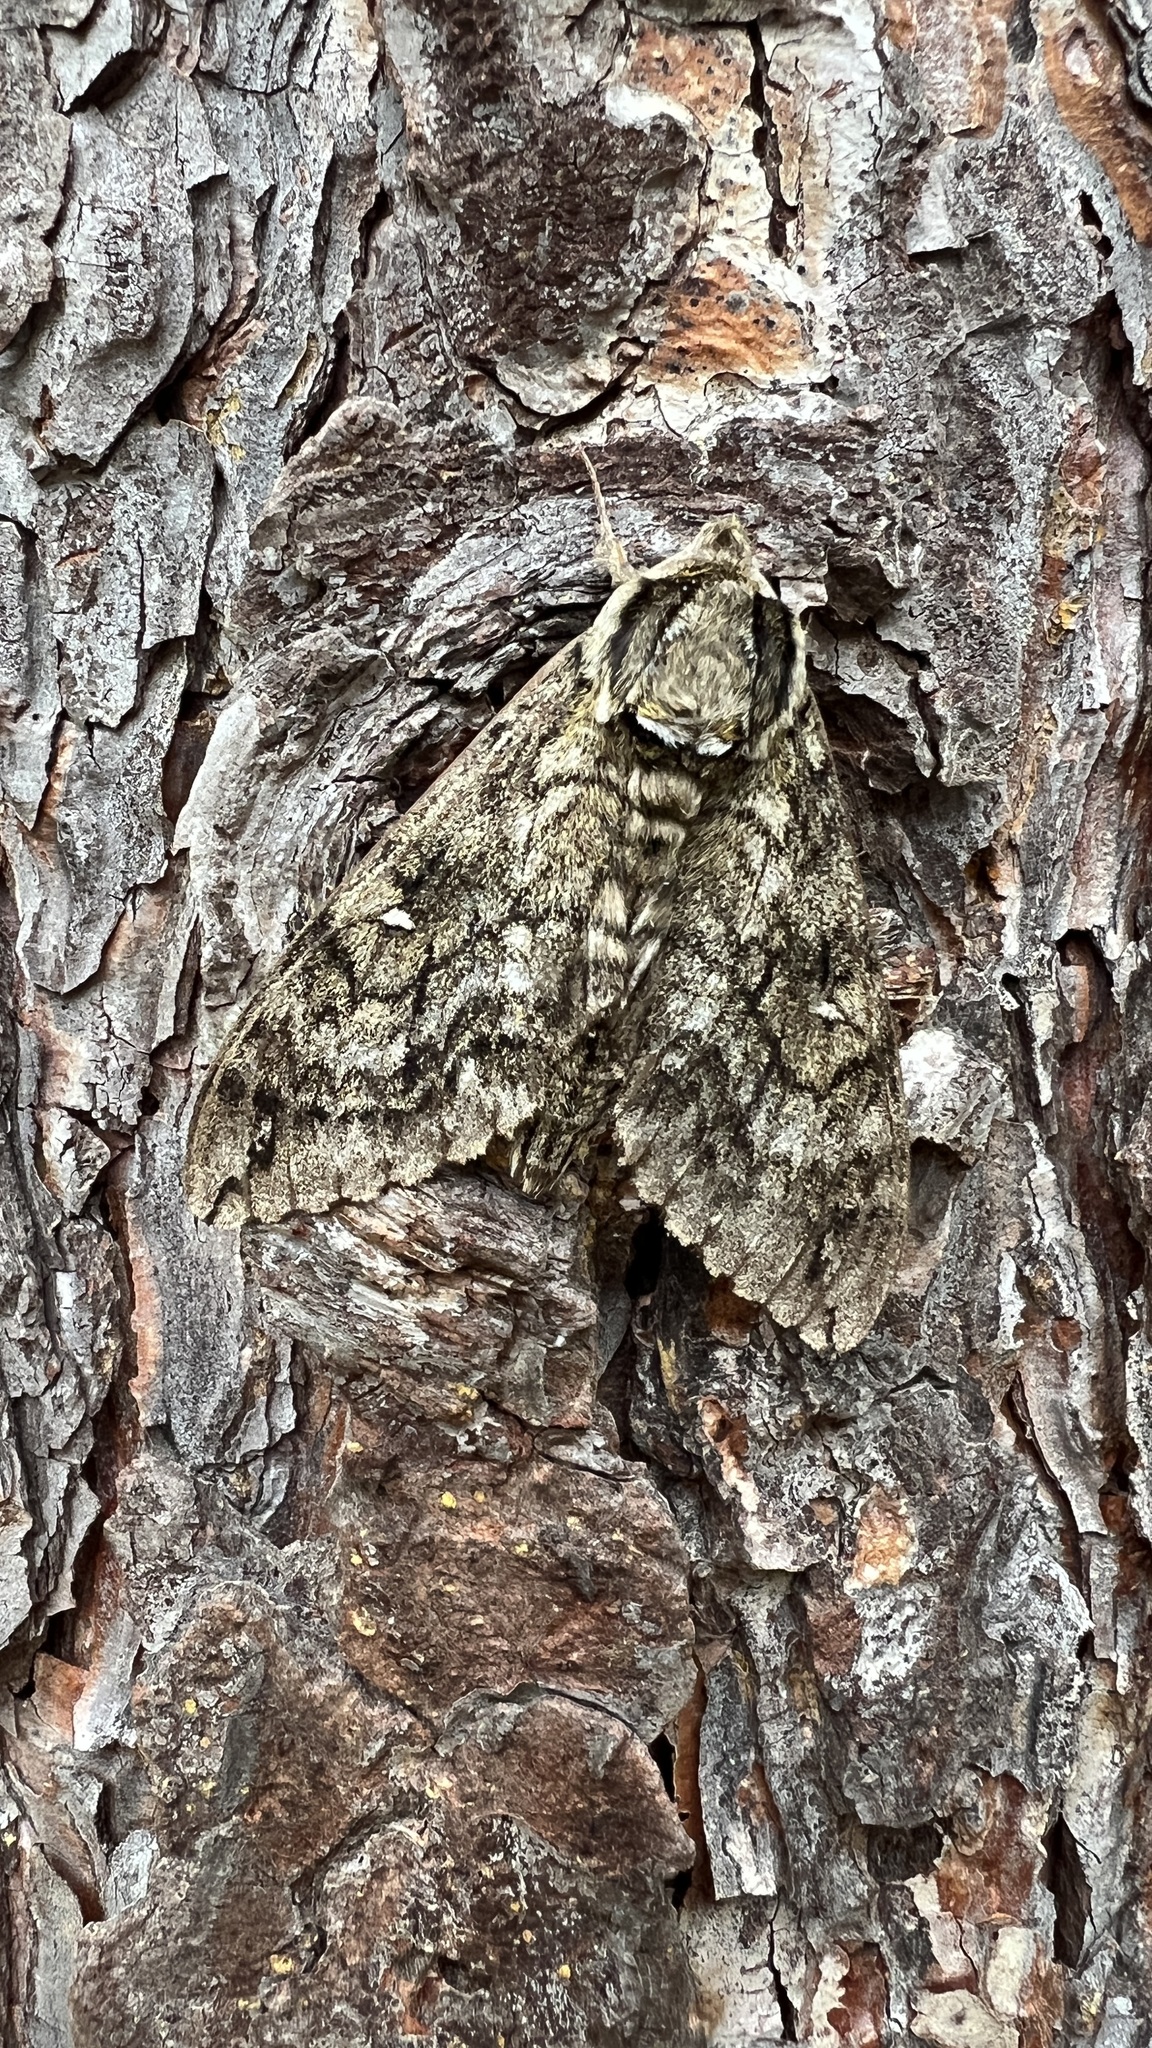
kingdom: Animalia
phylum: Arthropoda
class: Insecta
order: Lepidoptera
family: Sphingidae
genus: Ceratomia
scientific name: Ceratomia undulosa
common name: Waved sphinx
